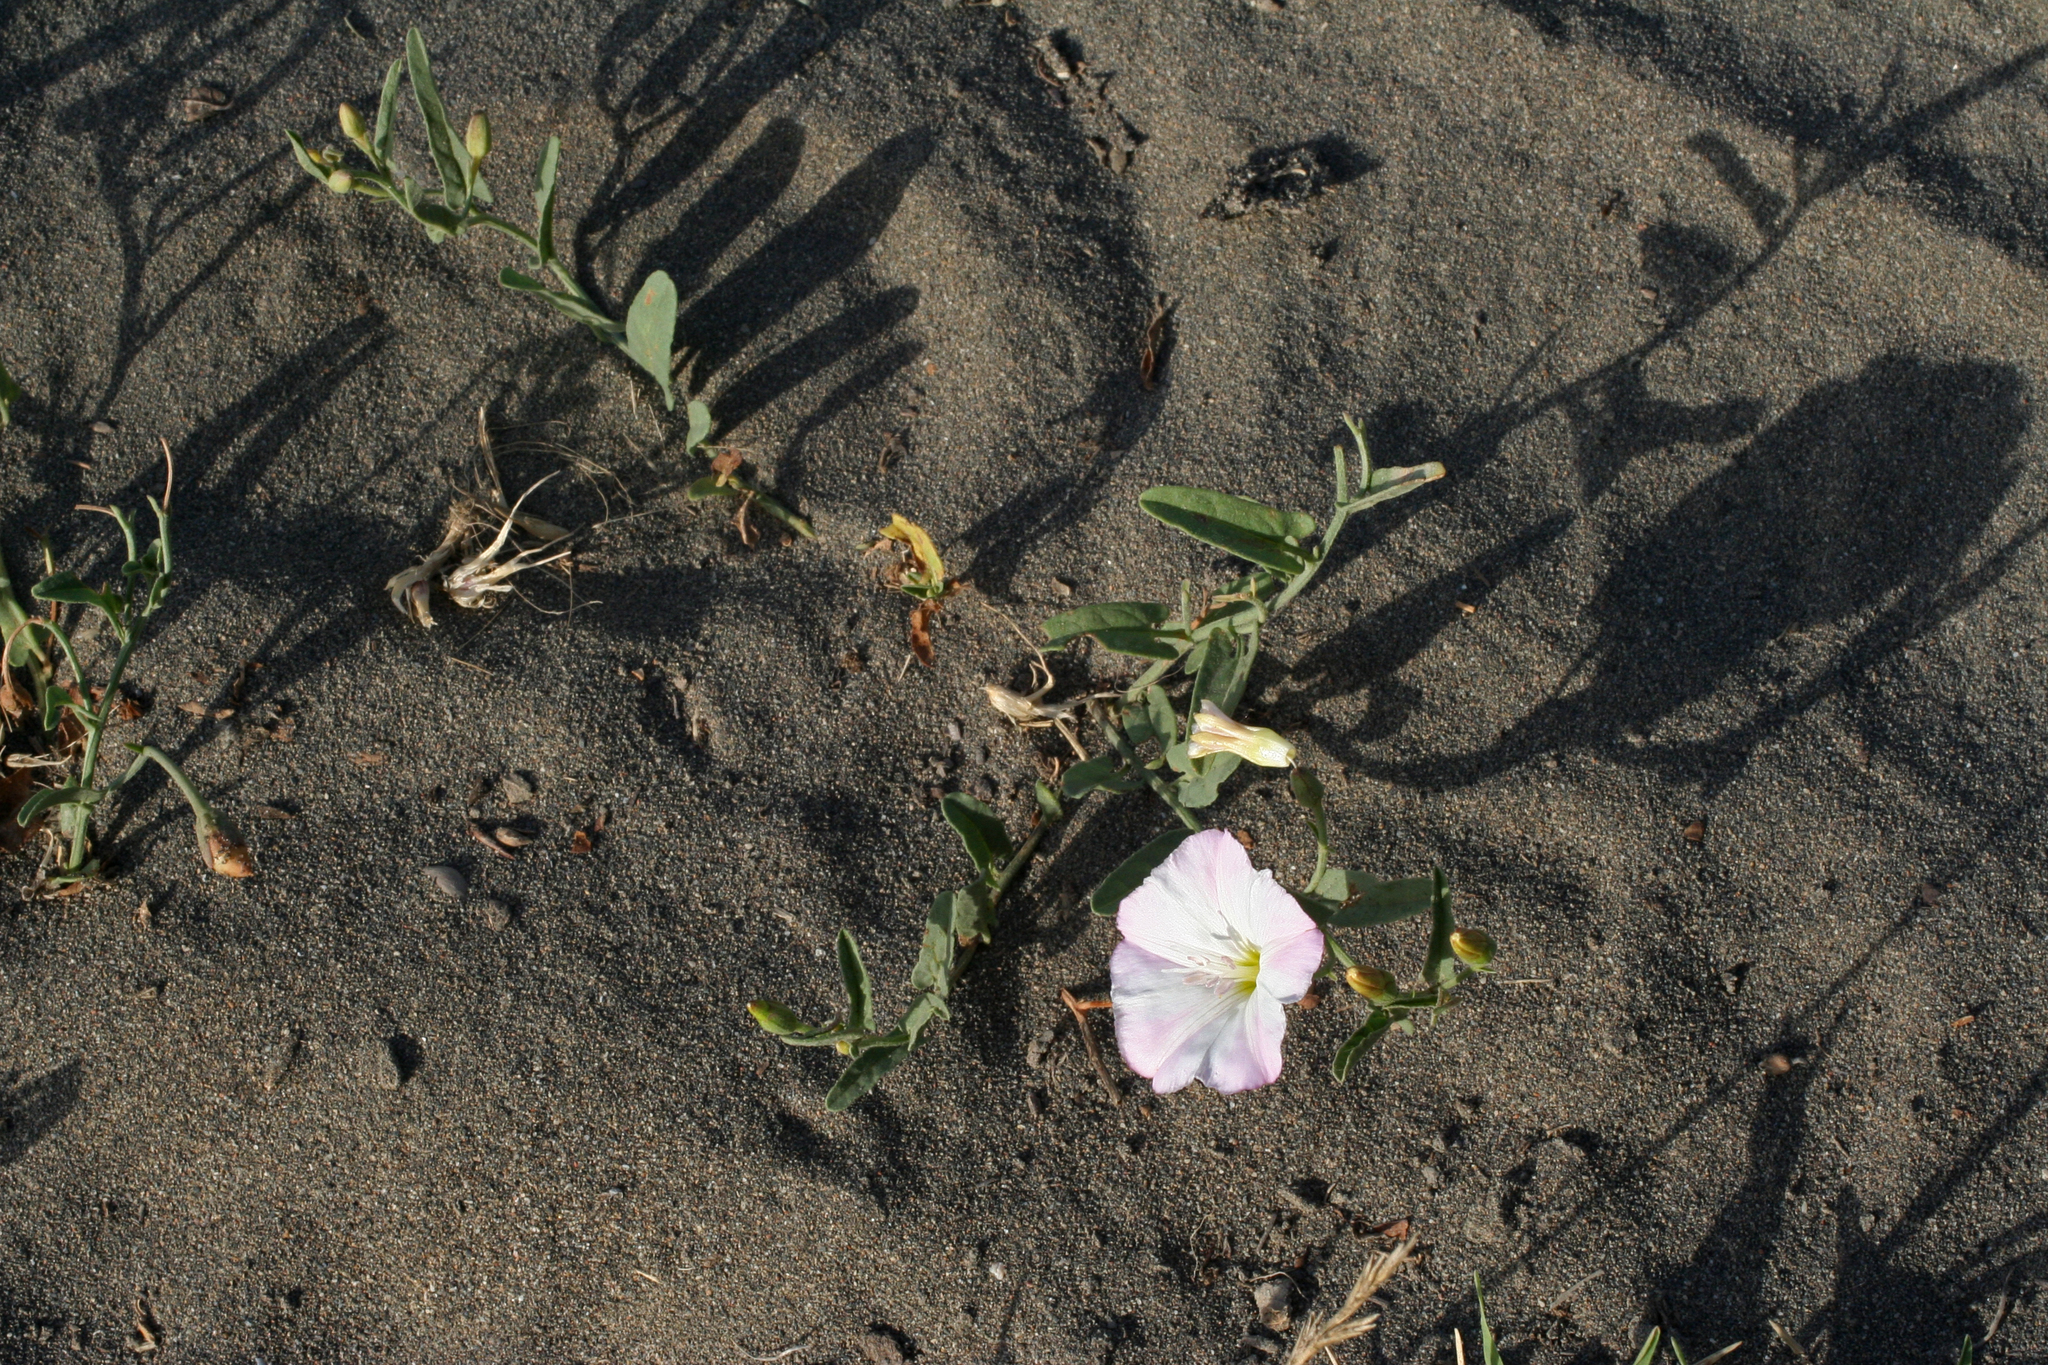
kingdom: Plantae
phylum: Tracheophyta
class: Magnoliopsida
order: Solanales
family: Convolvulaceae
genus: Convolvulus
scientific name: Convolvulus arvensis
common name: Field bindweed
